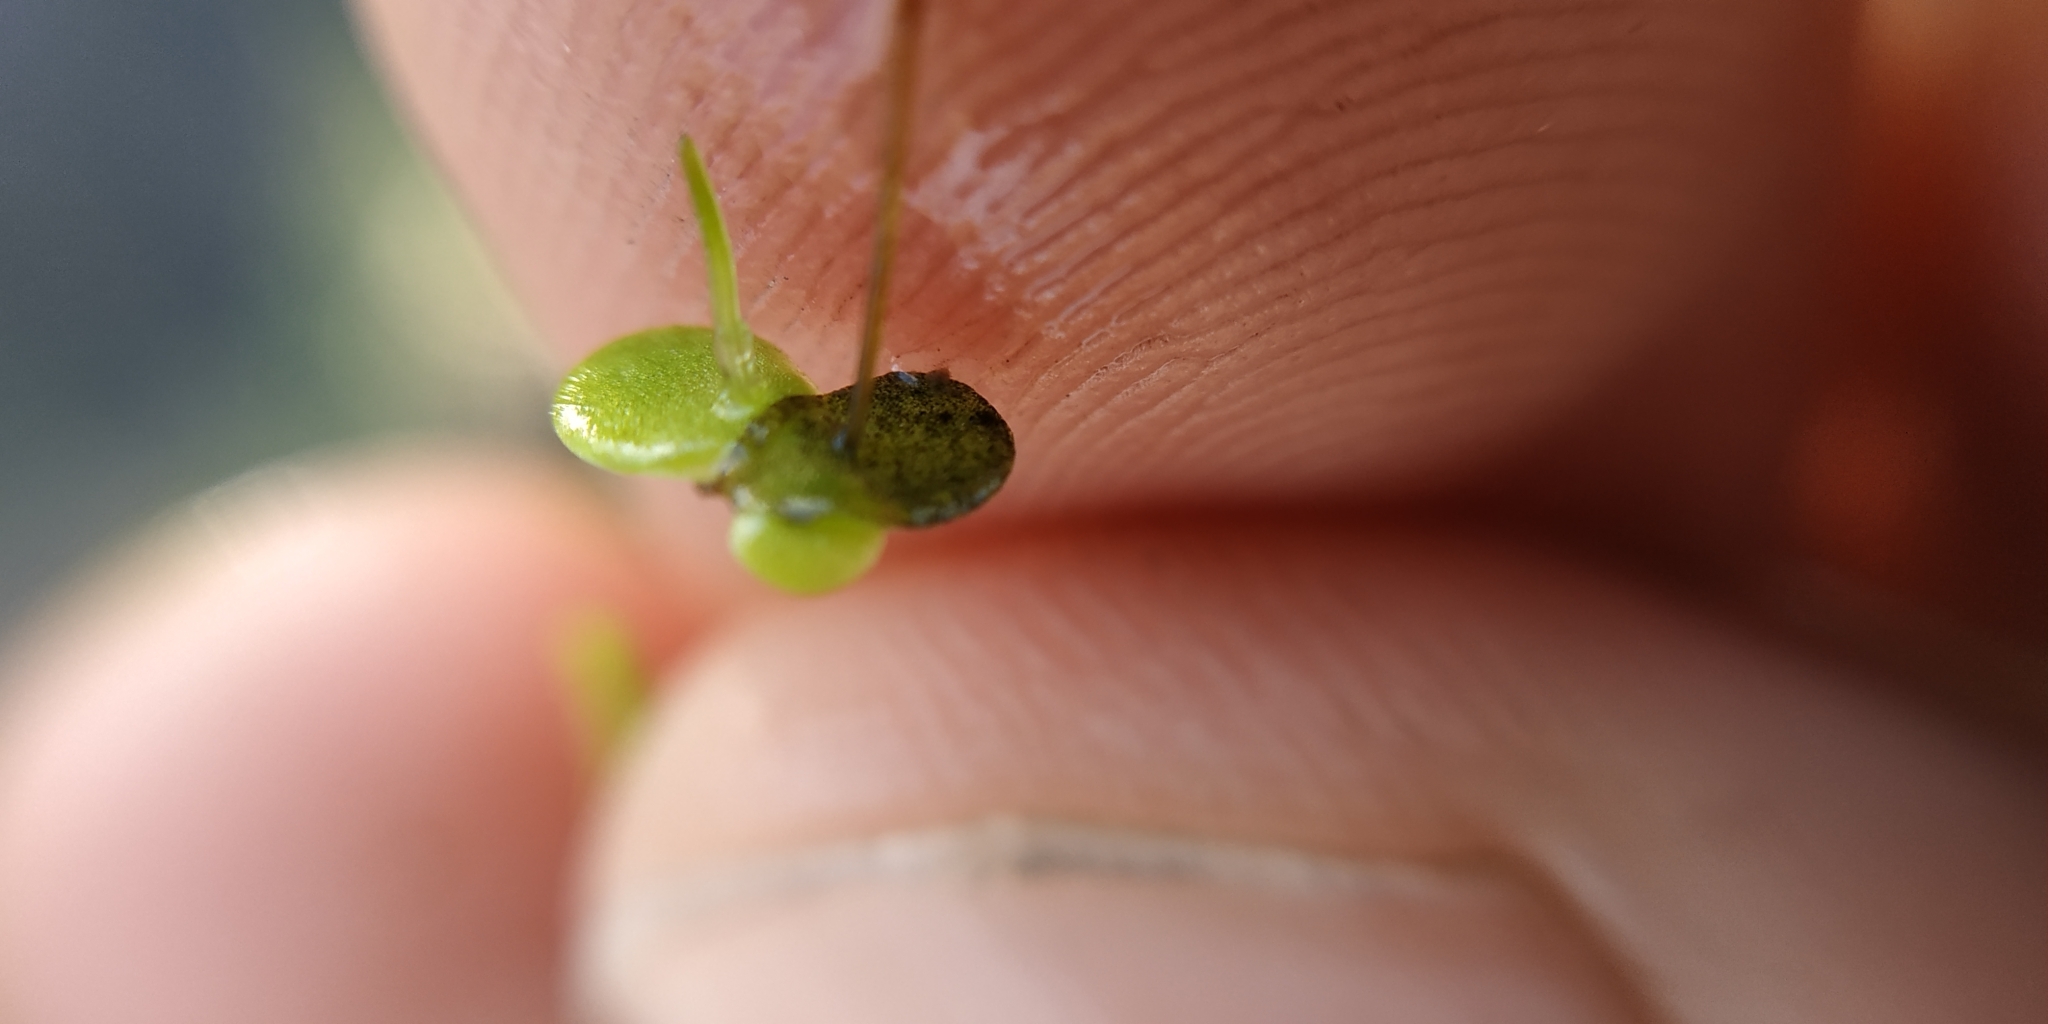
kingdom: Plantae
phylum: Tracheophyta
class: Liliopsida
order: Alismatales
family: Araceae
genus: Lemna
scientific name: Lemna turionifera
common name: Perennial duckweed
